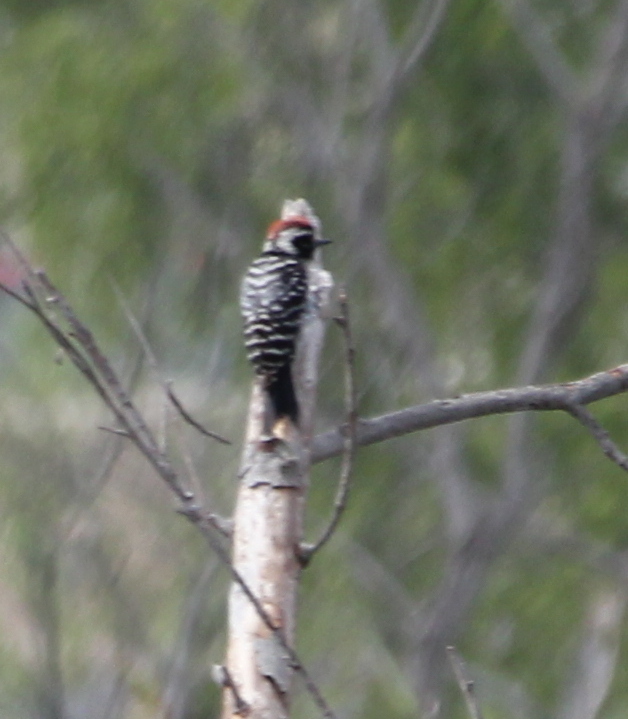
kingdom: Animalia
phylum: Chordata
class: Aves
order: Piciformes
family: Picidae
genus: Dryobates
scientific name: Dryobates nuttallii
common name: Nuttall's woodpecker
